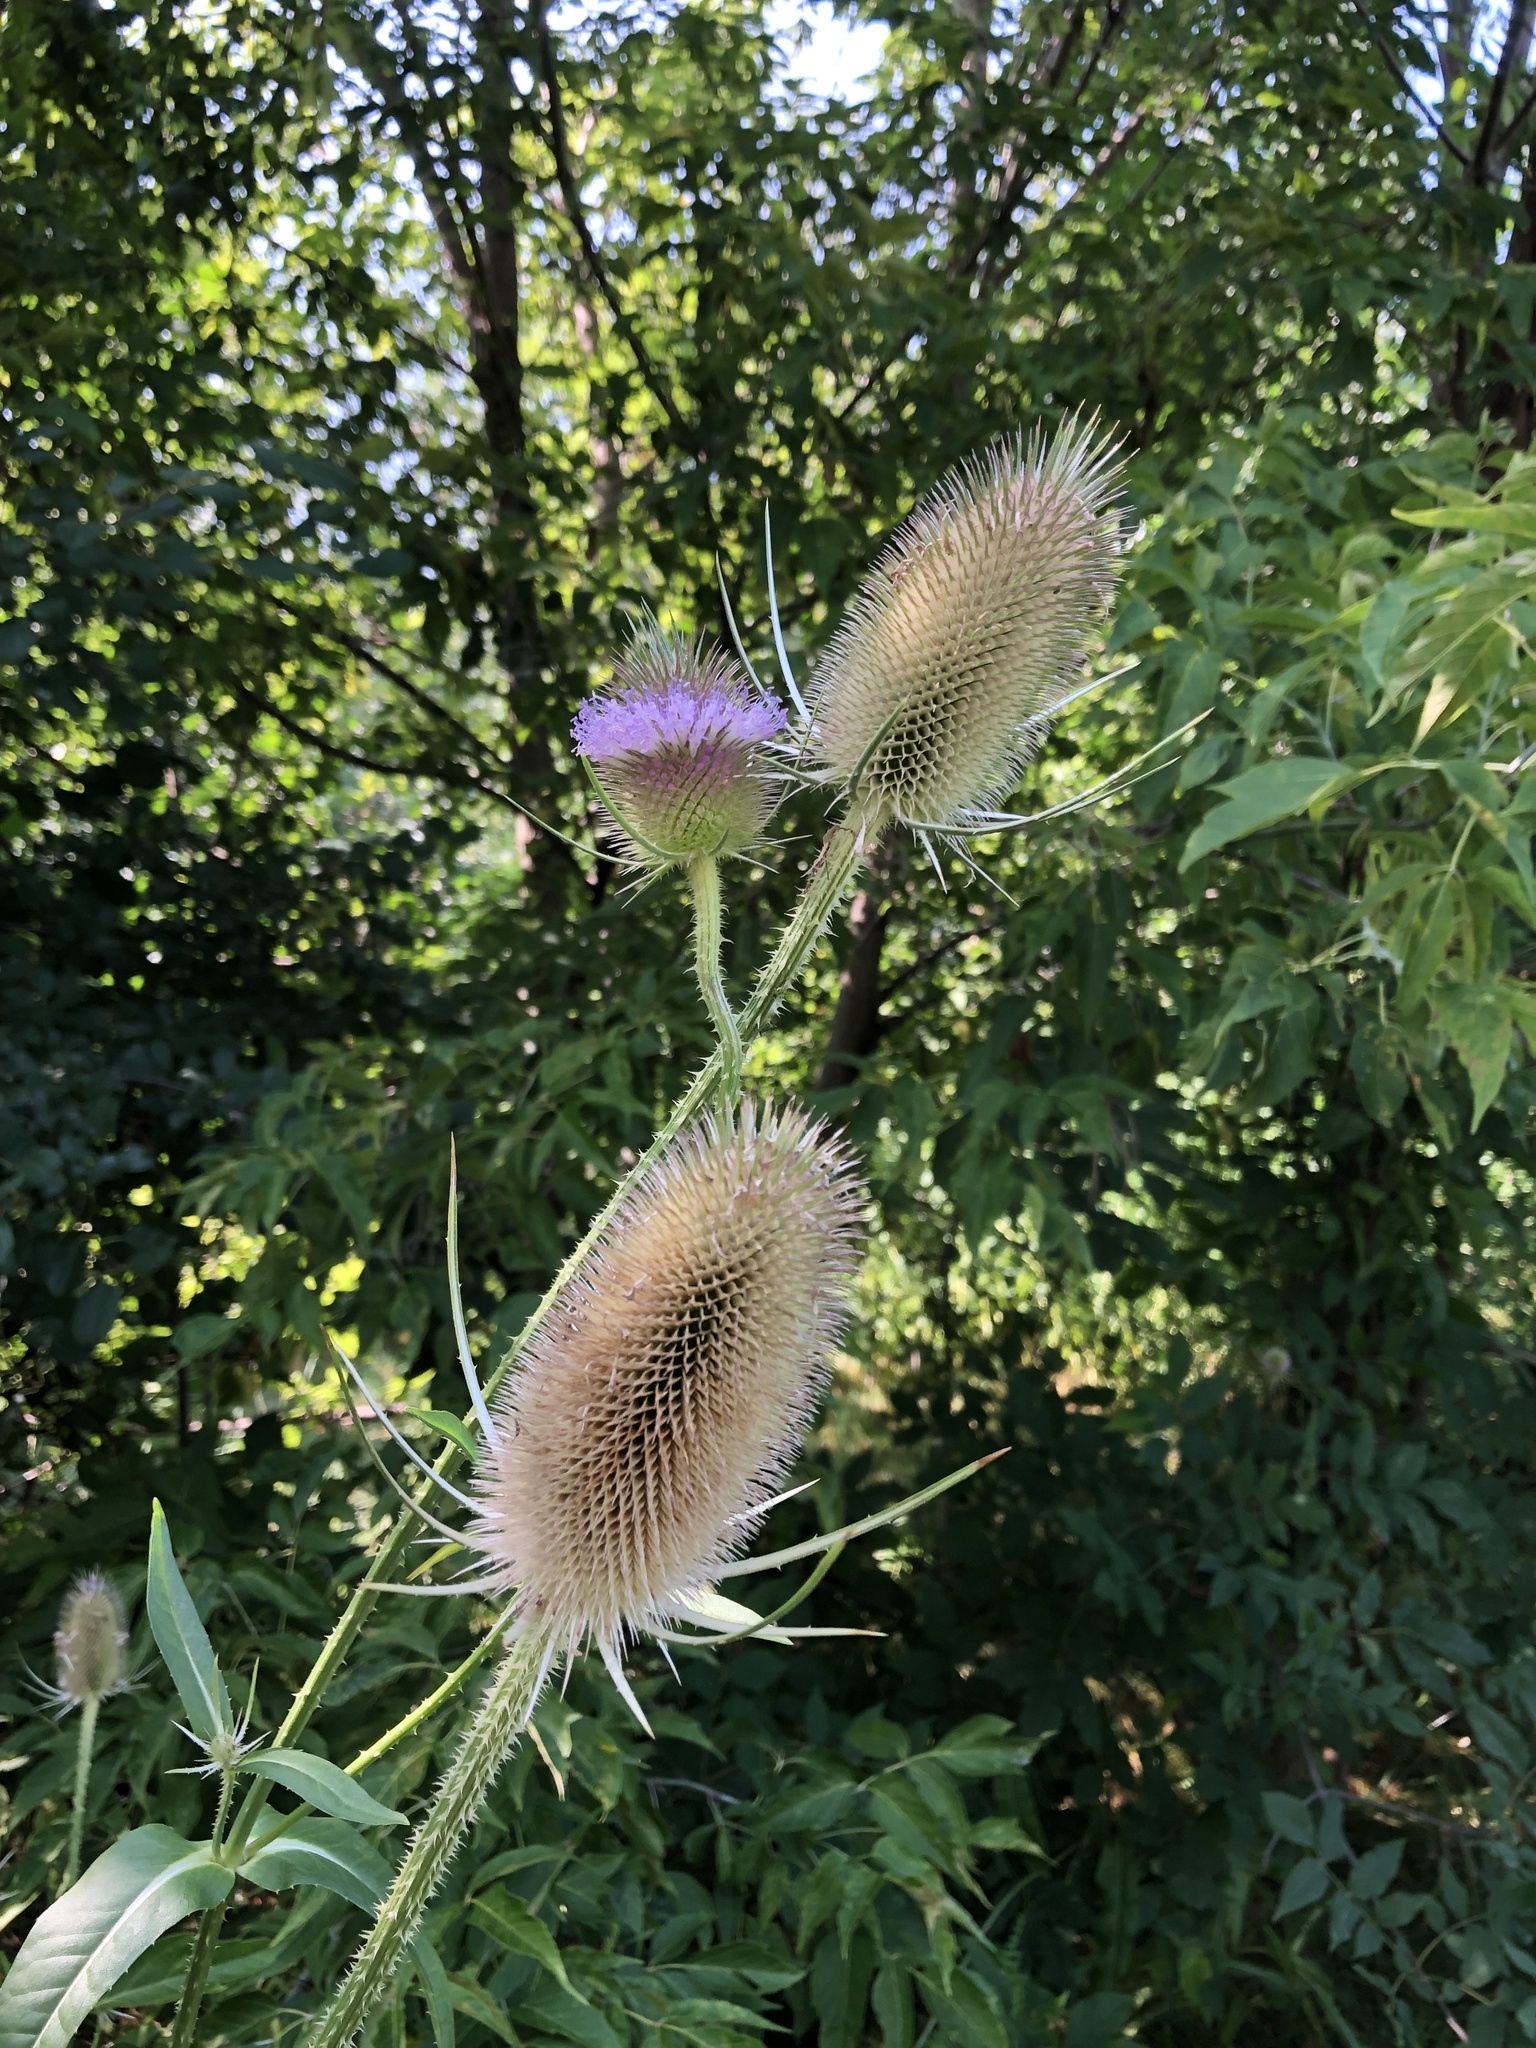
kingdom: Plantae
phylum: Tracheophyta
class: Magnoliopsida
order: Dipsacales
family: Caprifoliaceae
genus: Dipsacus
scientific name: Dipsacus fullonum
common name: Teasel
